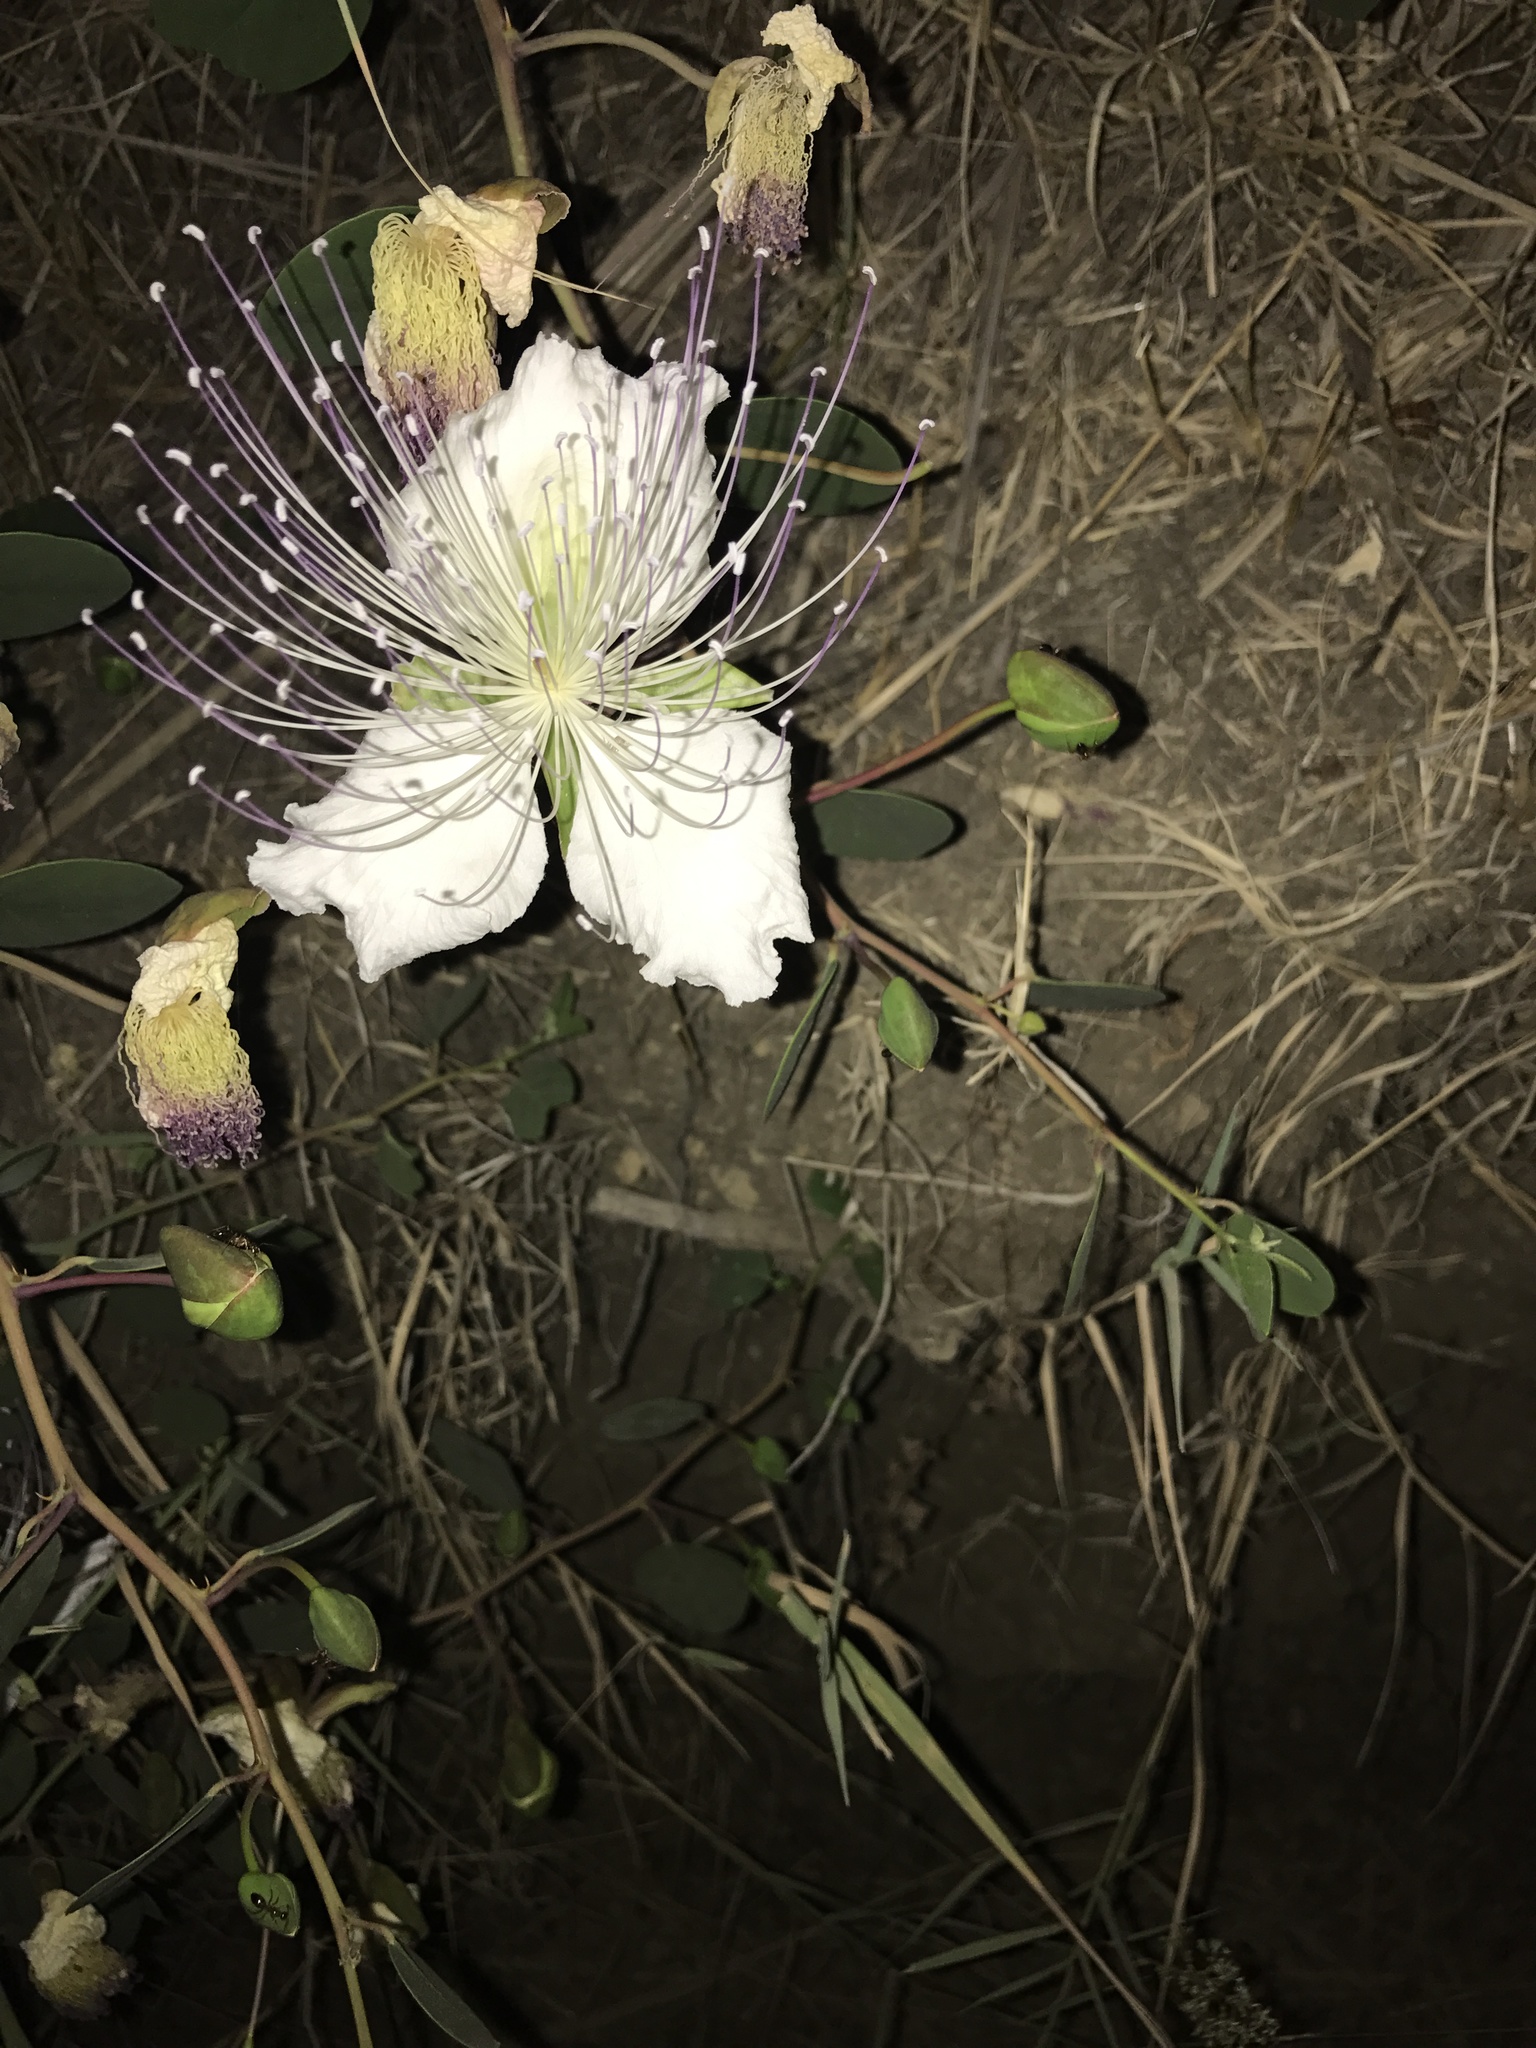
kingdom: Plantae
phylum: Tracheophyta
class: Magnoliopsida
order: Brassicales
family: Capparaceae
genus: Capparis
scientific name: Capparis spinosa
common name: Caper
